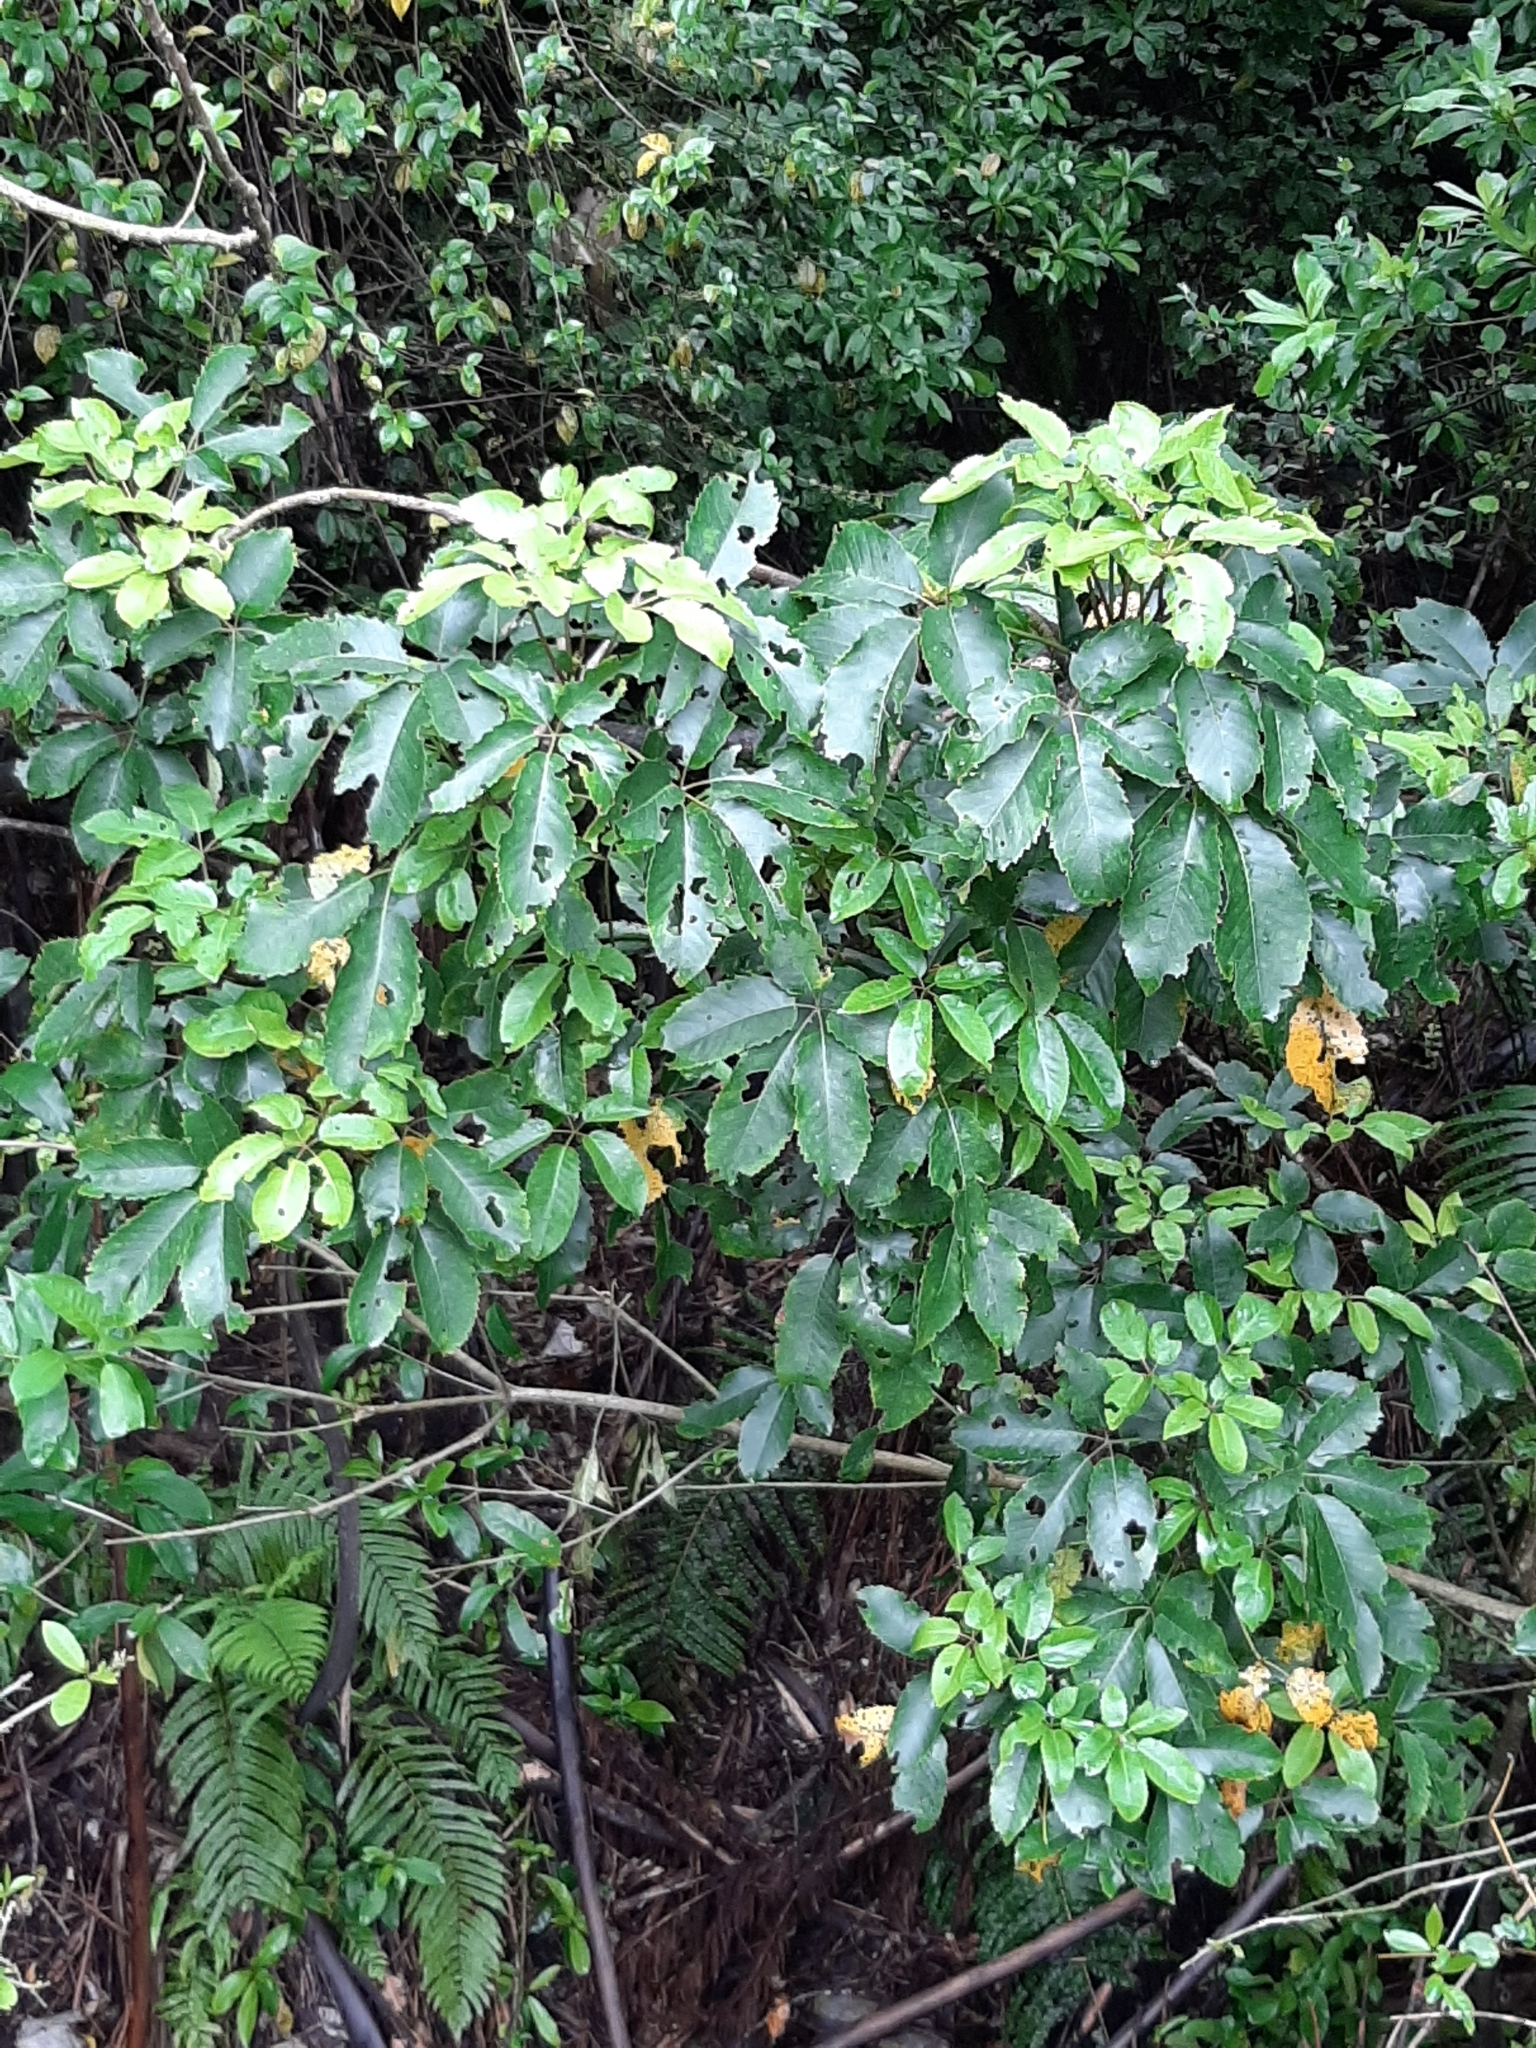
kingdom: Plantae
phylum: Tracheophyta
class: Magnoliopsida
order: Apiales
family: Araliaceae
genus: Neopanax
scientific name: Neopanax arboreus
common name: Five-fingers
